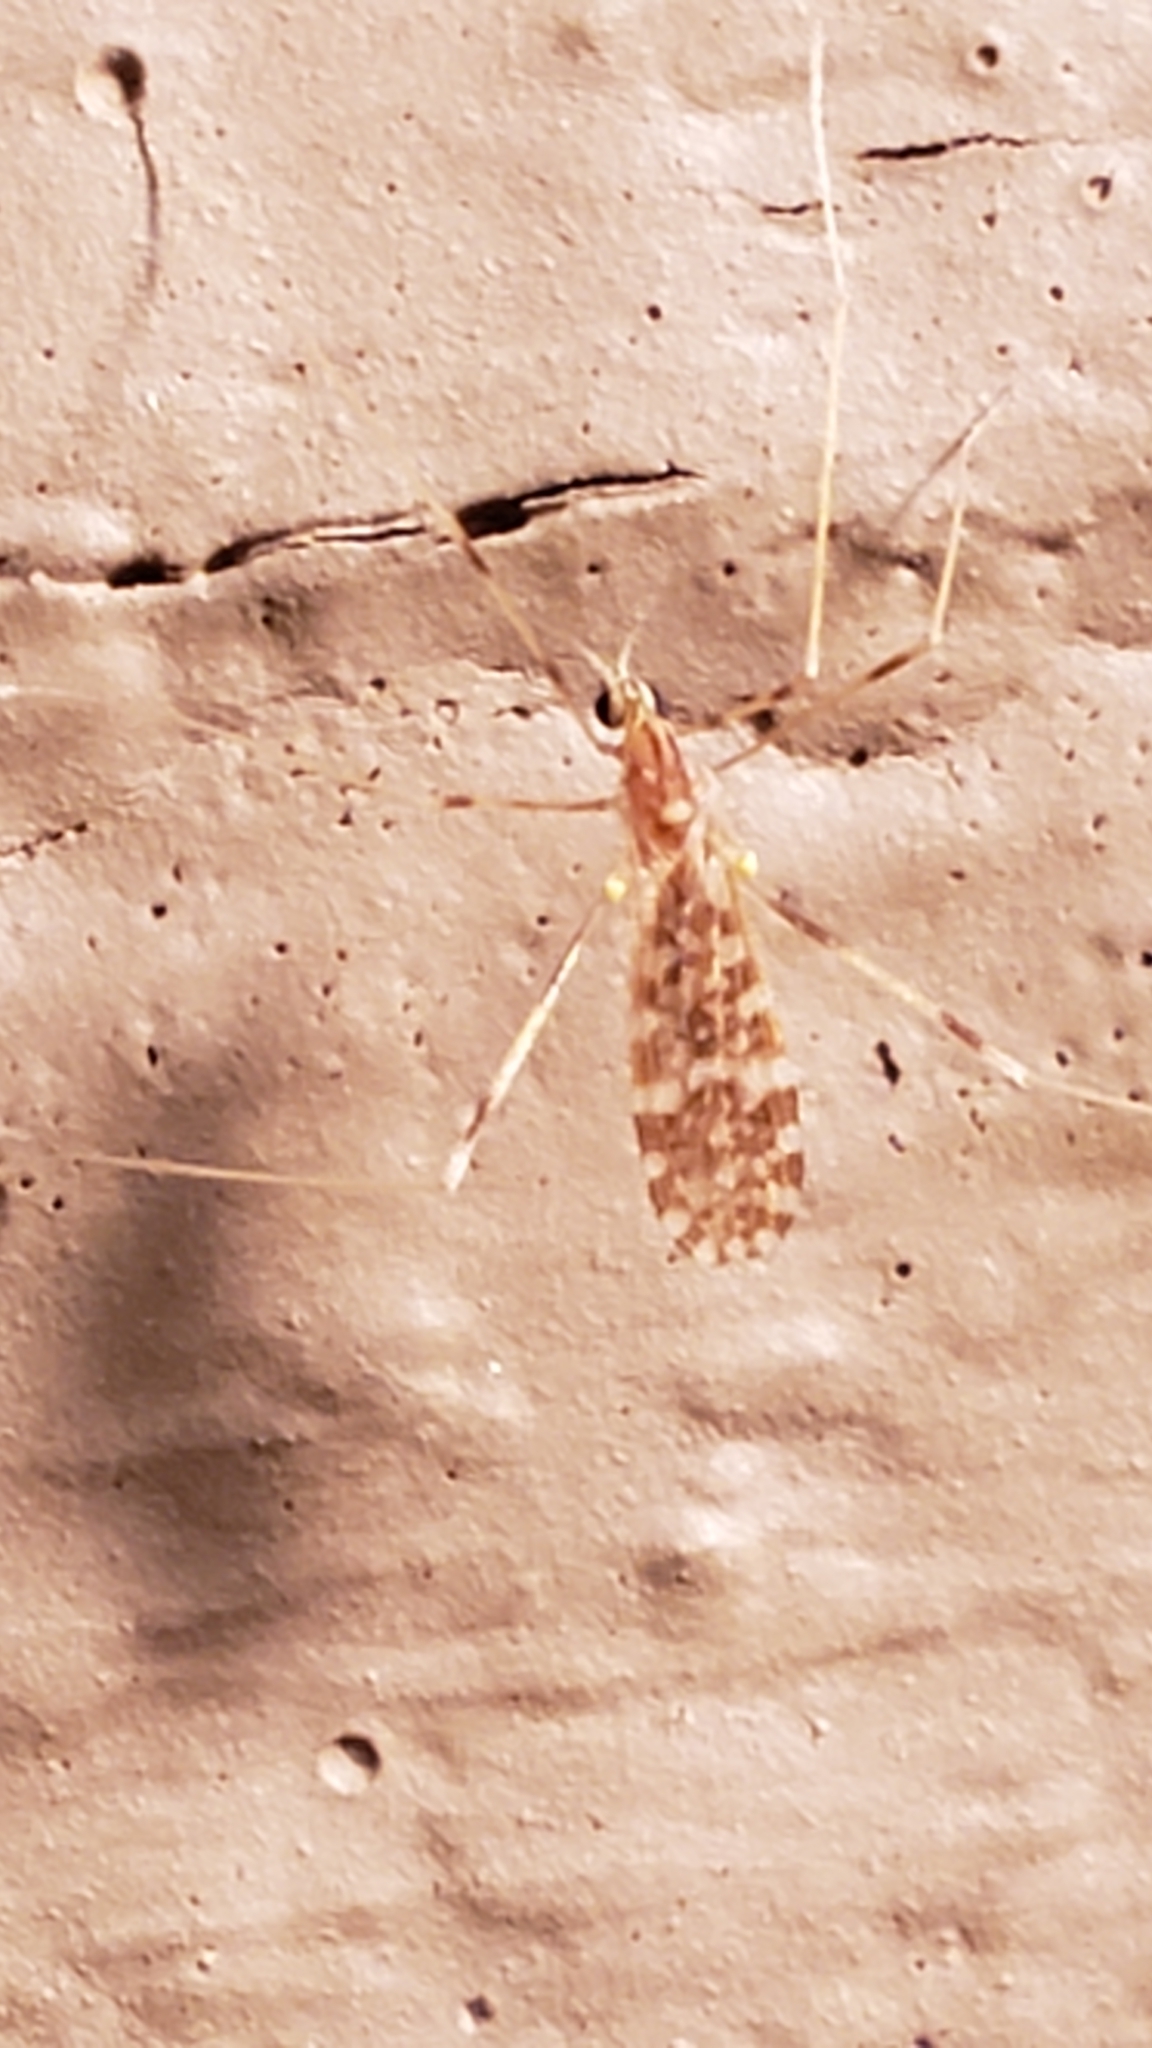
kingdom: Animalia
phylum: Arthropoda
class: Insecta
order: Diptera
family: Limoniidae
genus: Erioptera
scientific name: Erioptera caliptera
